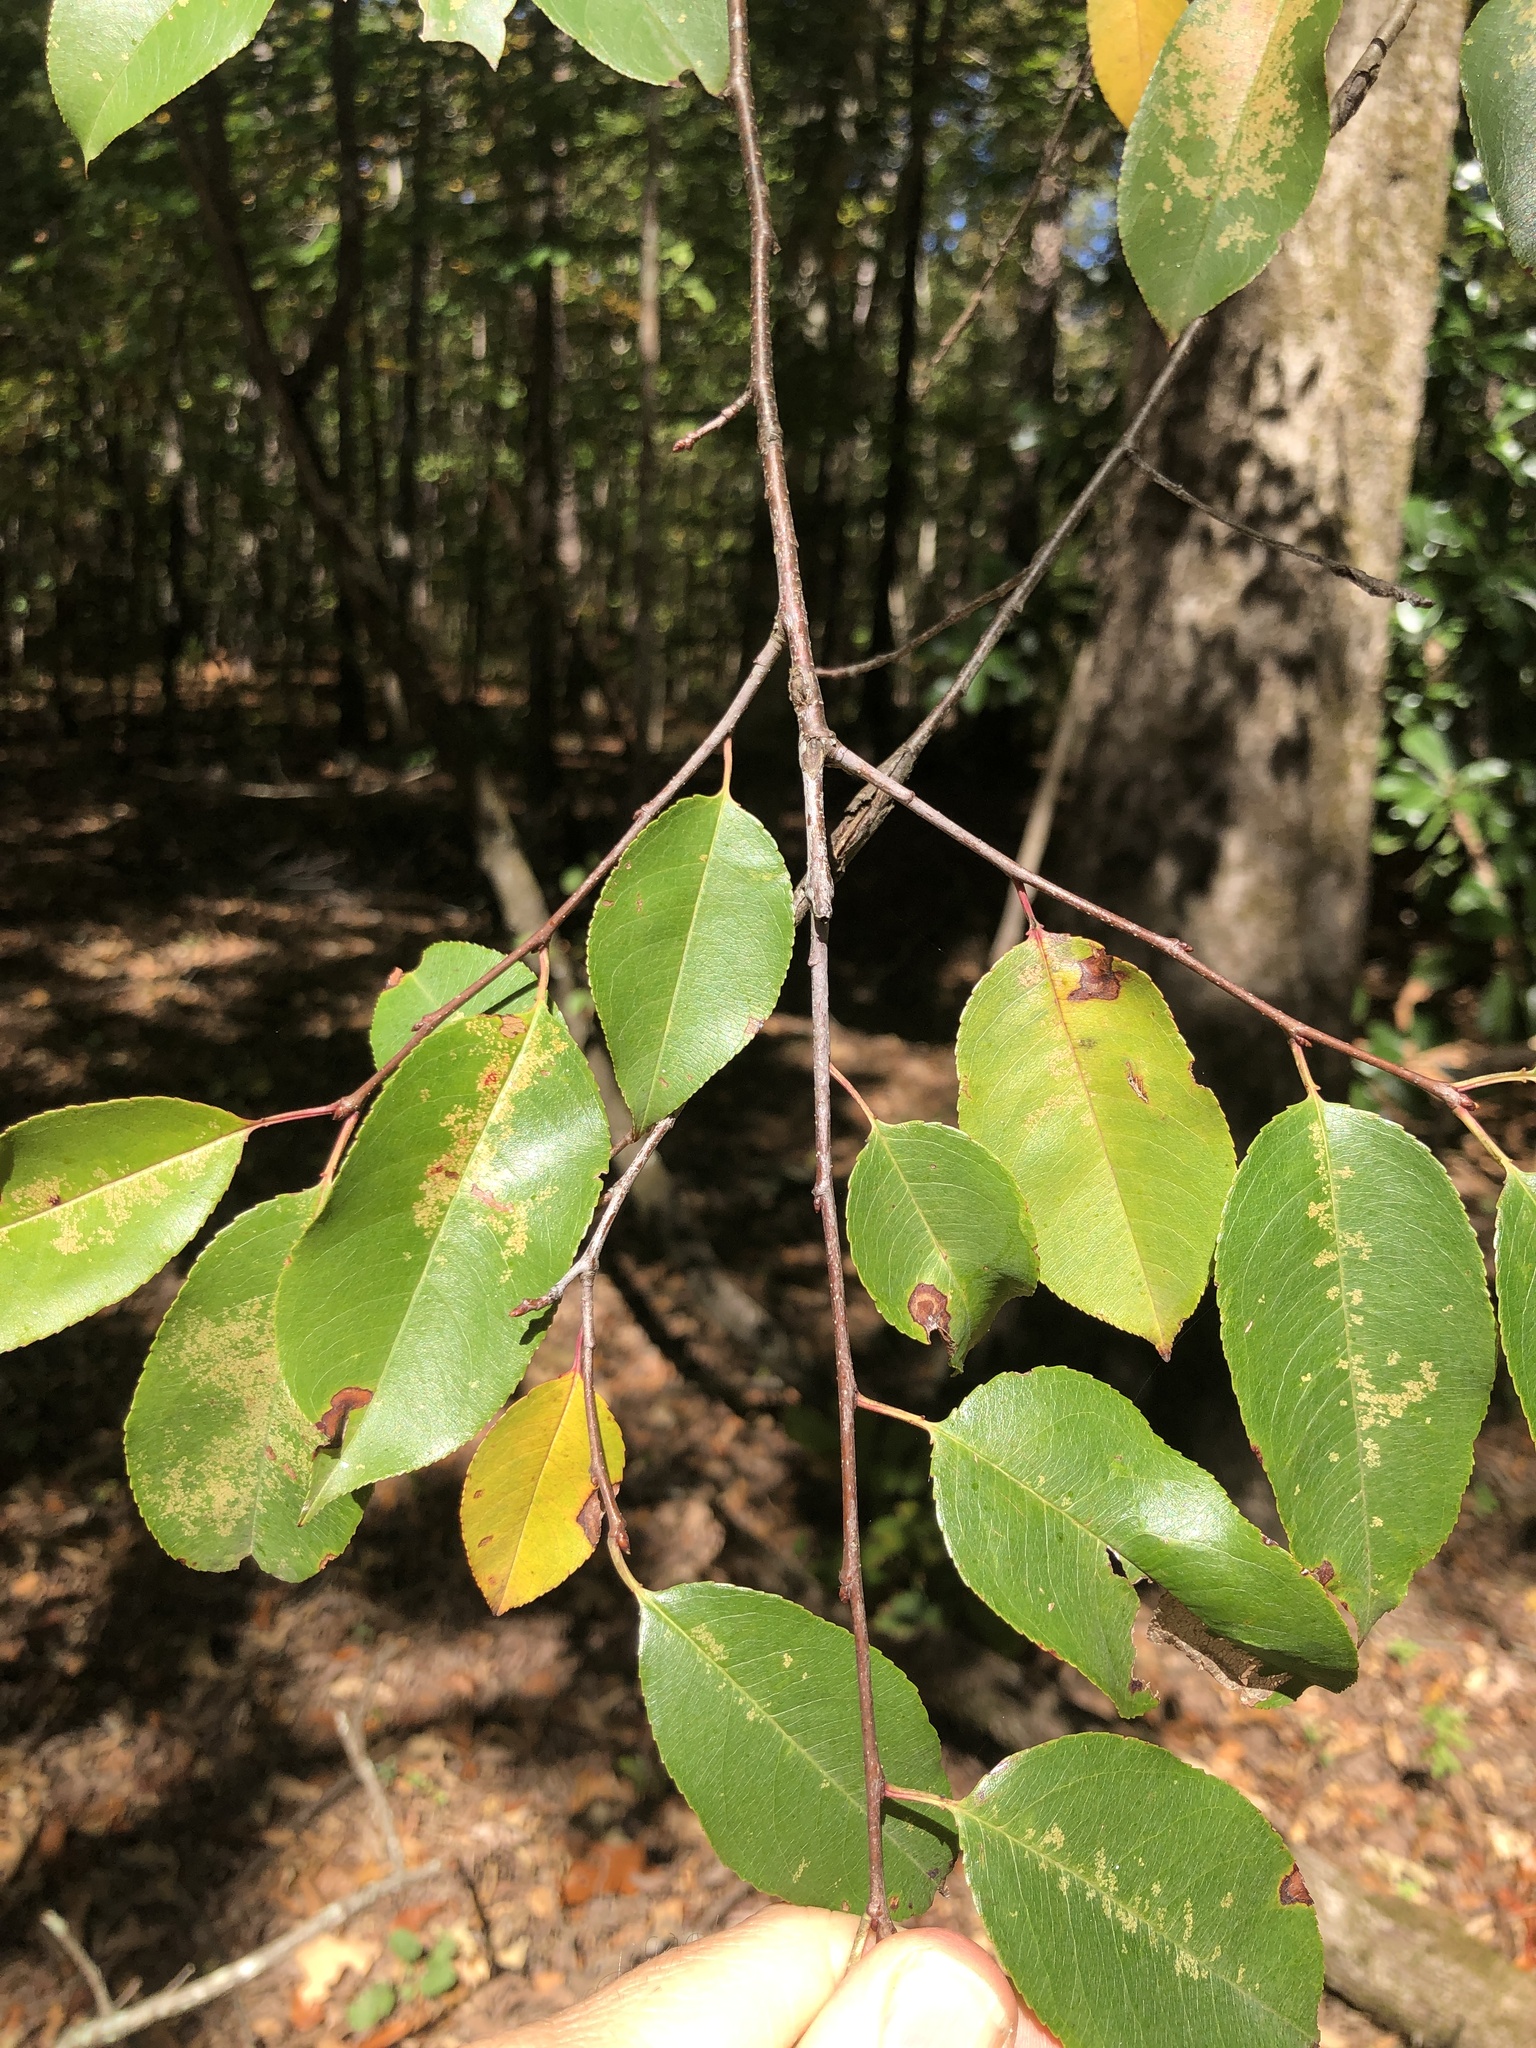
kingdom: Plantae
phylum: Tracheophyta
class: Magnoliopsida
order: Rosales
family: Rosaceae
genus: Prunus
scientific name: Prunus serotina
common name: Black cherry
